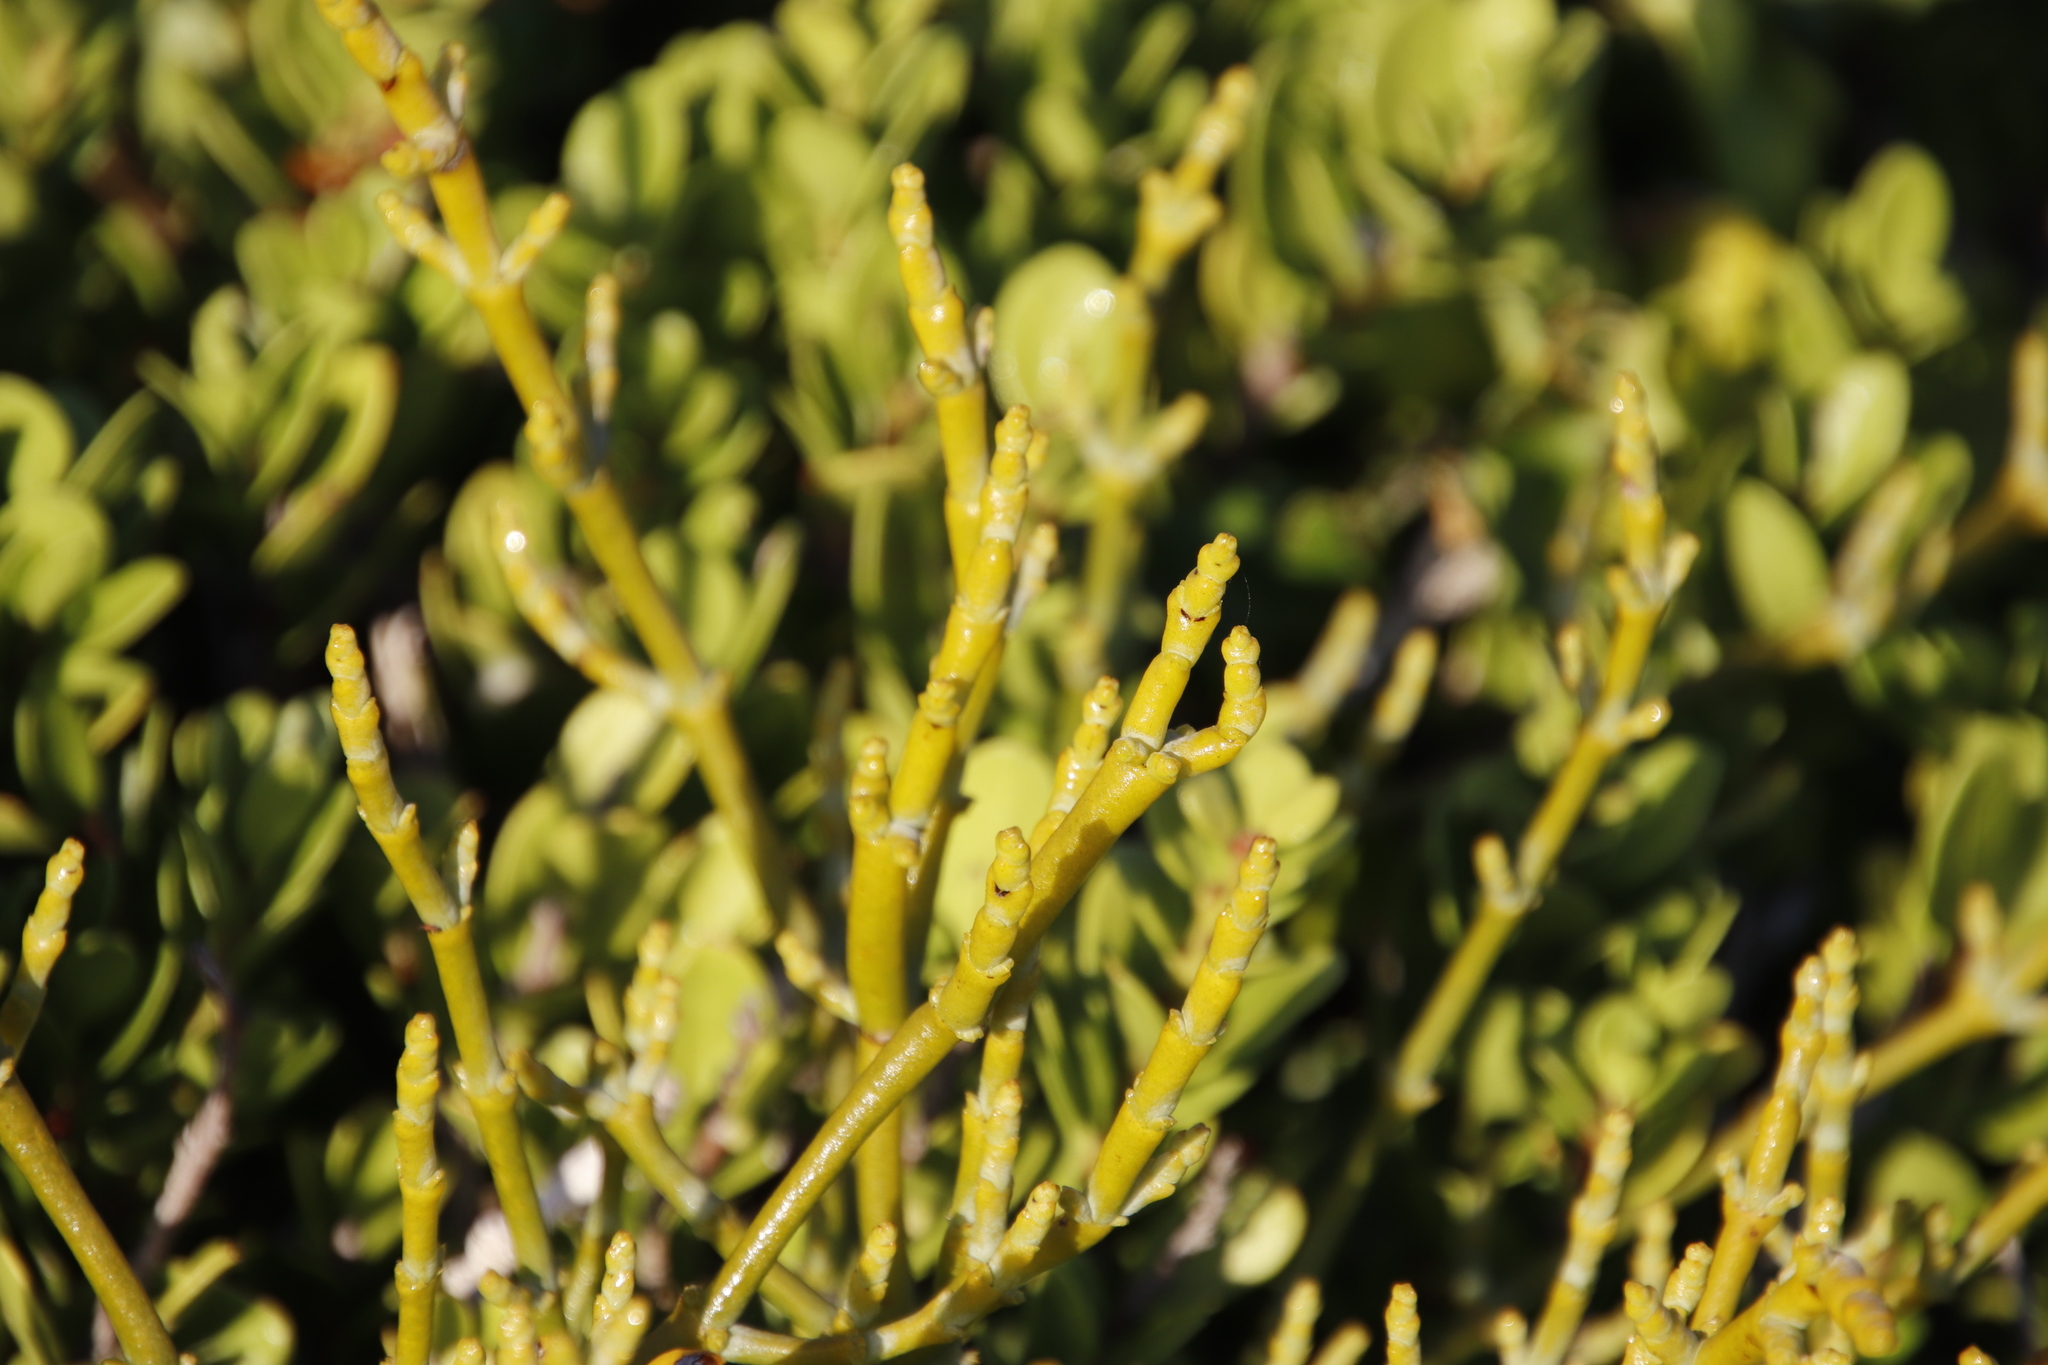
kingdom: Plantae
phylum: Tracheophyta
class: Magnoliopsida
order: Santalales
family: Viscaceae
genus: Viscum
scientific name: Viscum capense
